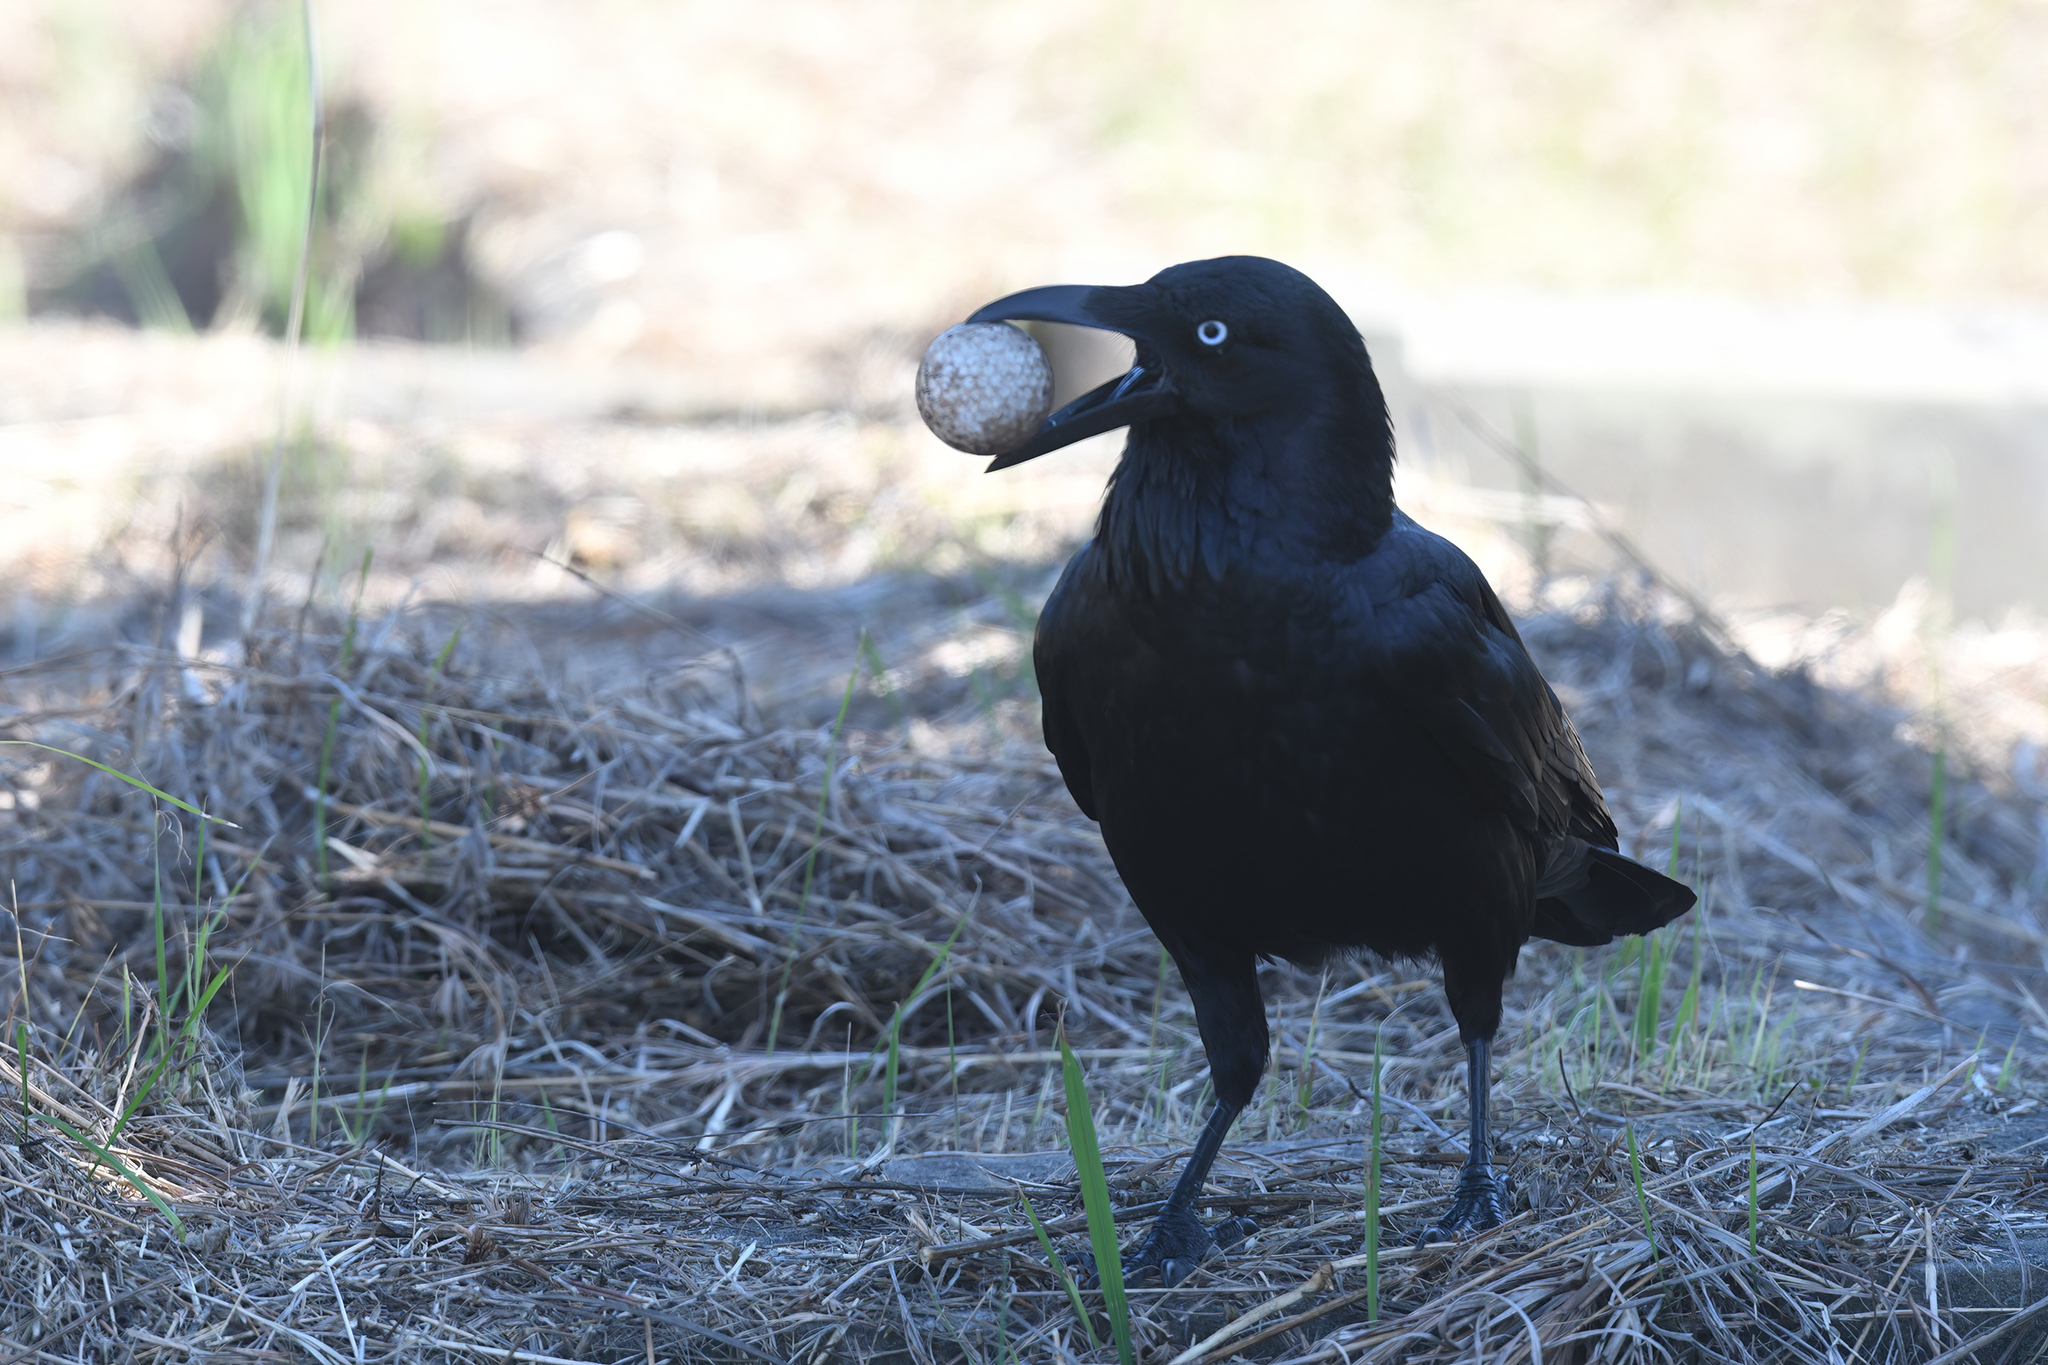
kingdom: Animalia
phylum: Chordata
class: Aves
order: Passeriformes
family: Corvidae
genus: Corvus
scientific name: Corvus coronoides
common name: Australian raven
